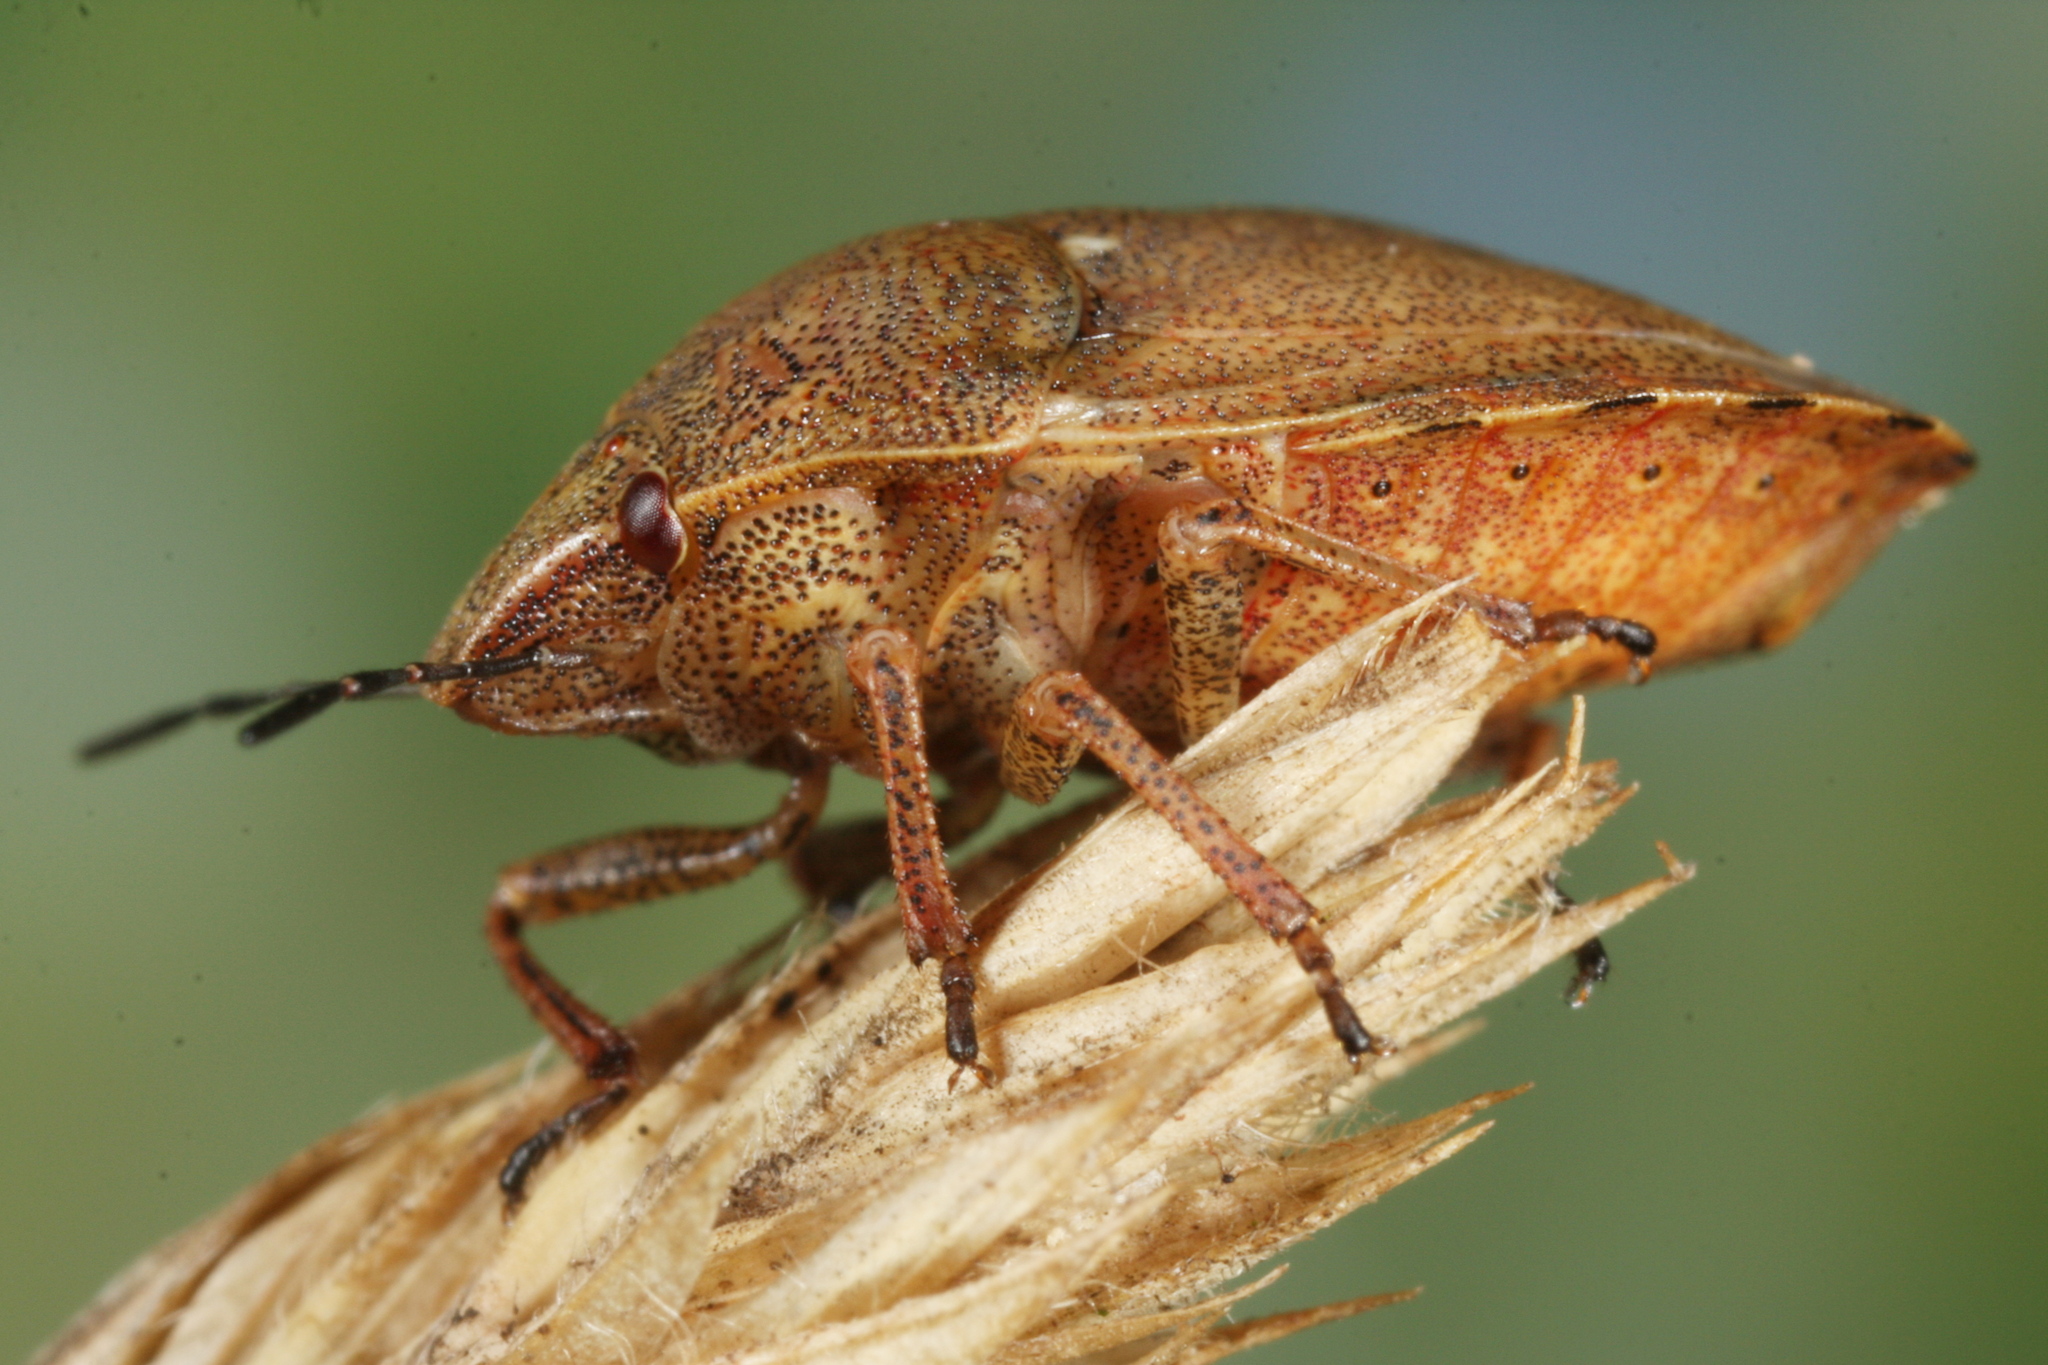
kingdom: Animalia
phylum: Arthropoda
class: Insecta
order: Hemiptera
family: Scutelleridae
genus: Eurygaster
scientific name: Eurygaster testudinaria
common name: Tortoise bug
